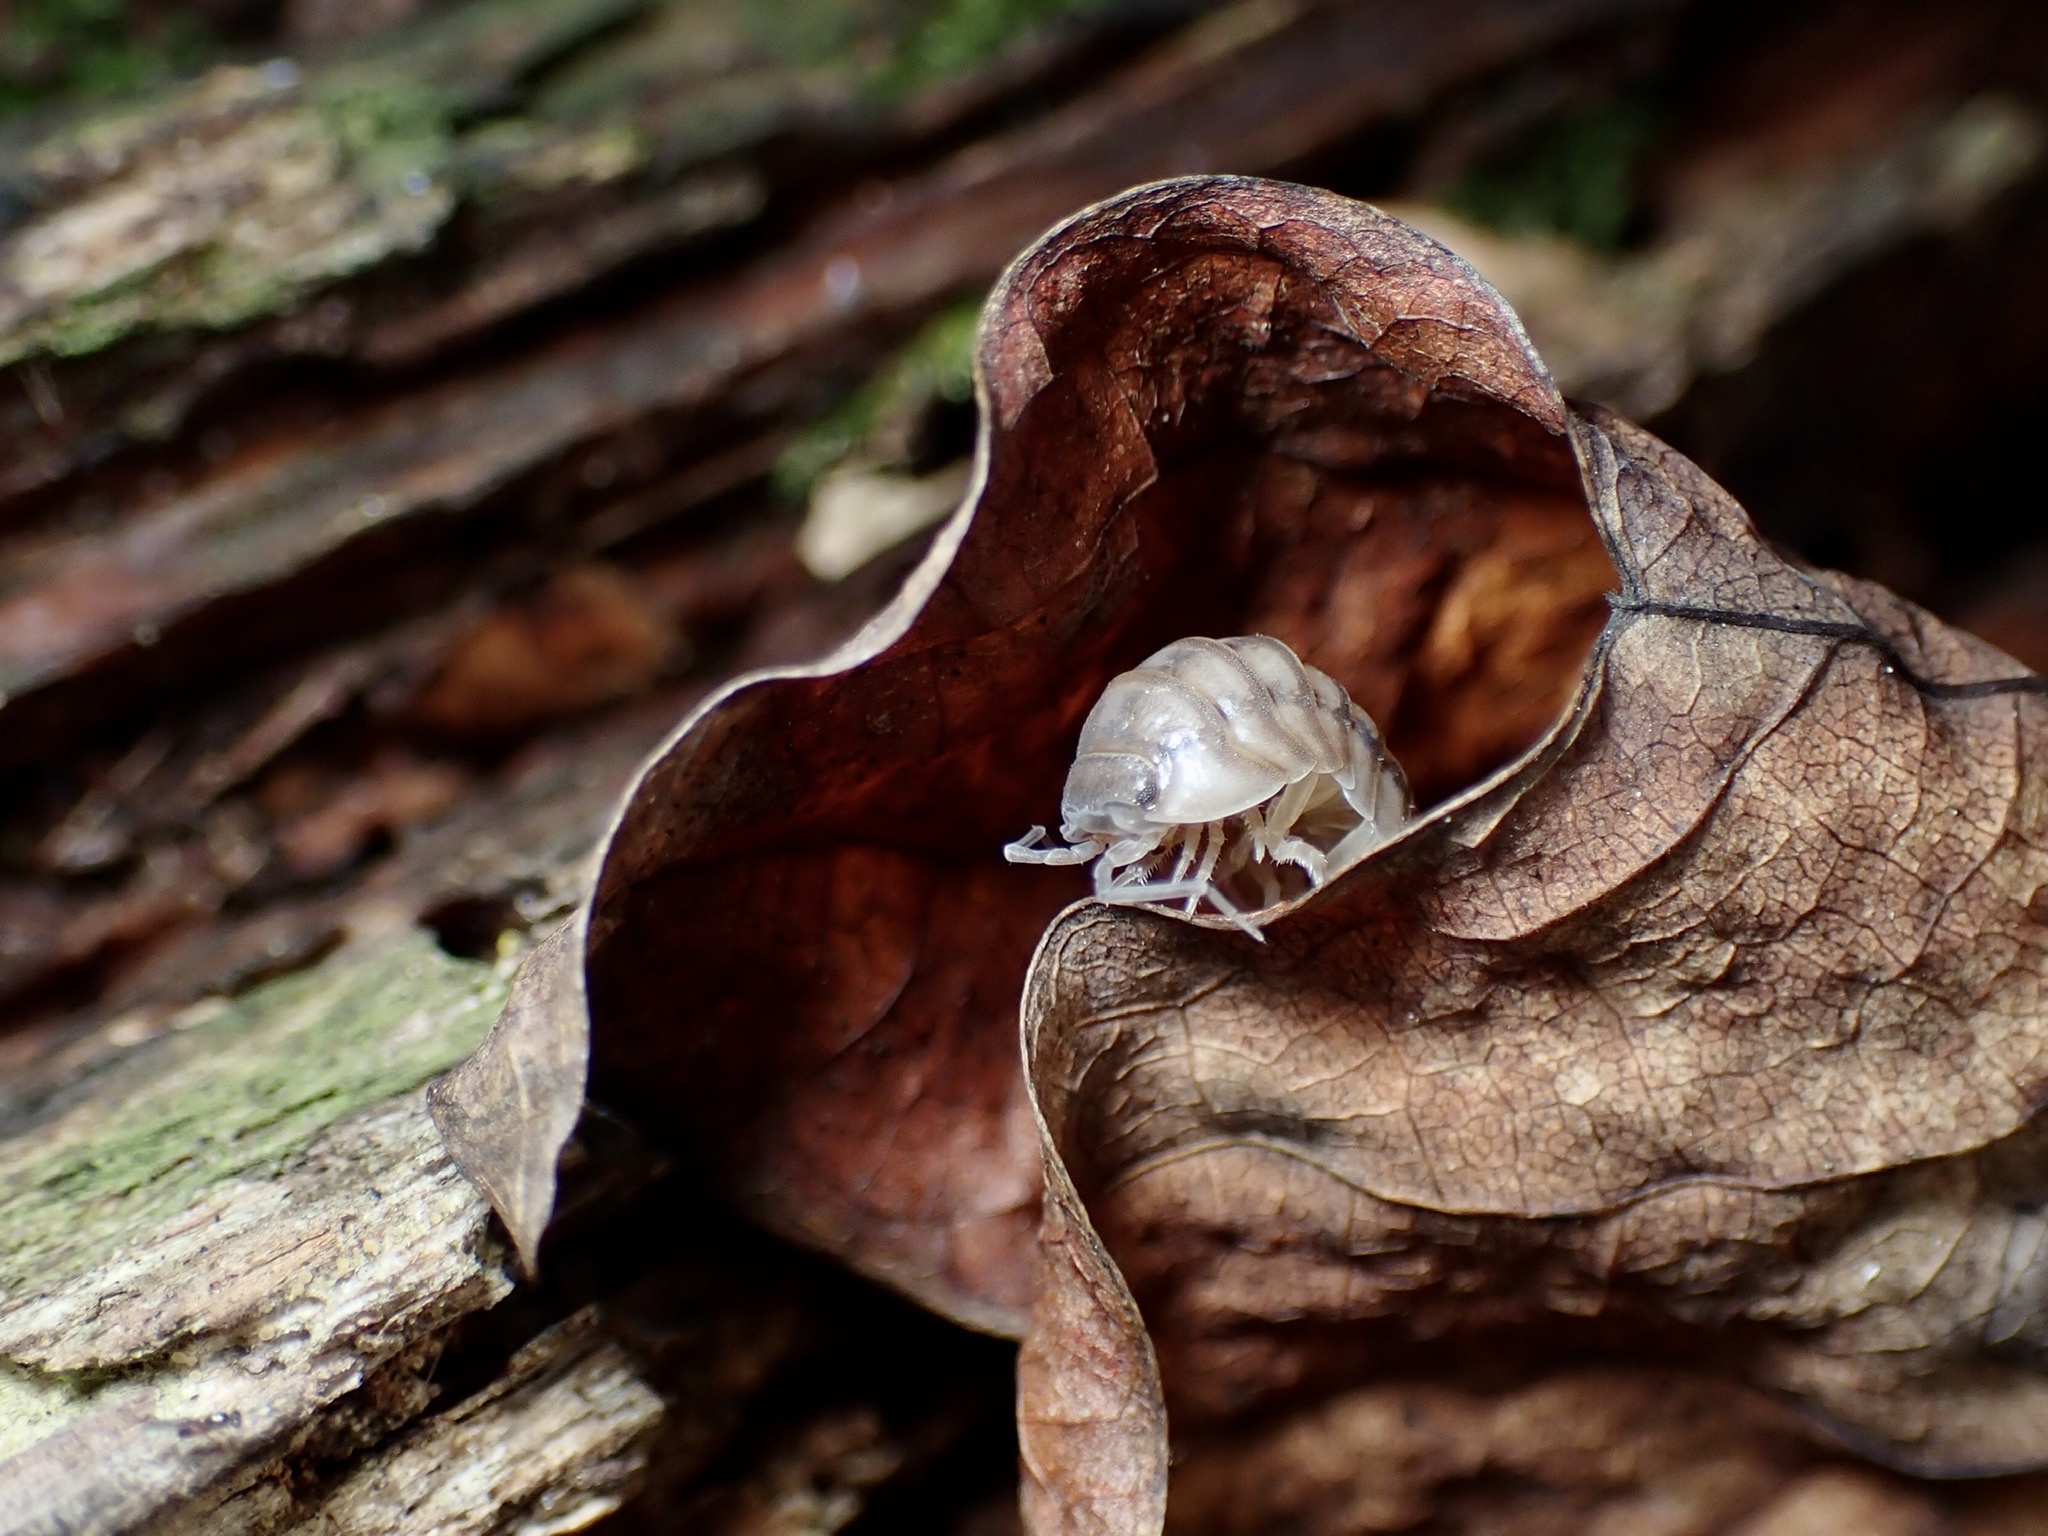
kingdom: Animalia
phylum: Arthropoda
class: Malacostraca
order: Isopoda
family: Armadillidiidae
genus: Armadillidium
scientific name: Armadillidium nasatum
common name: Isopod
